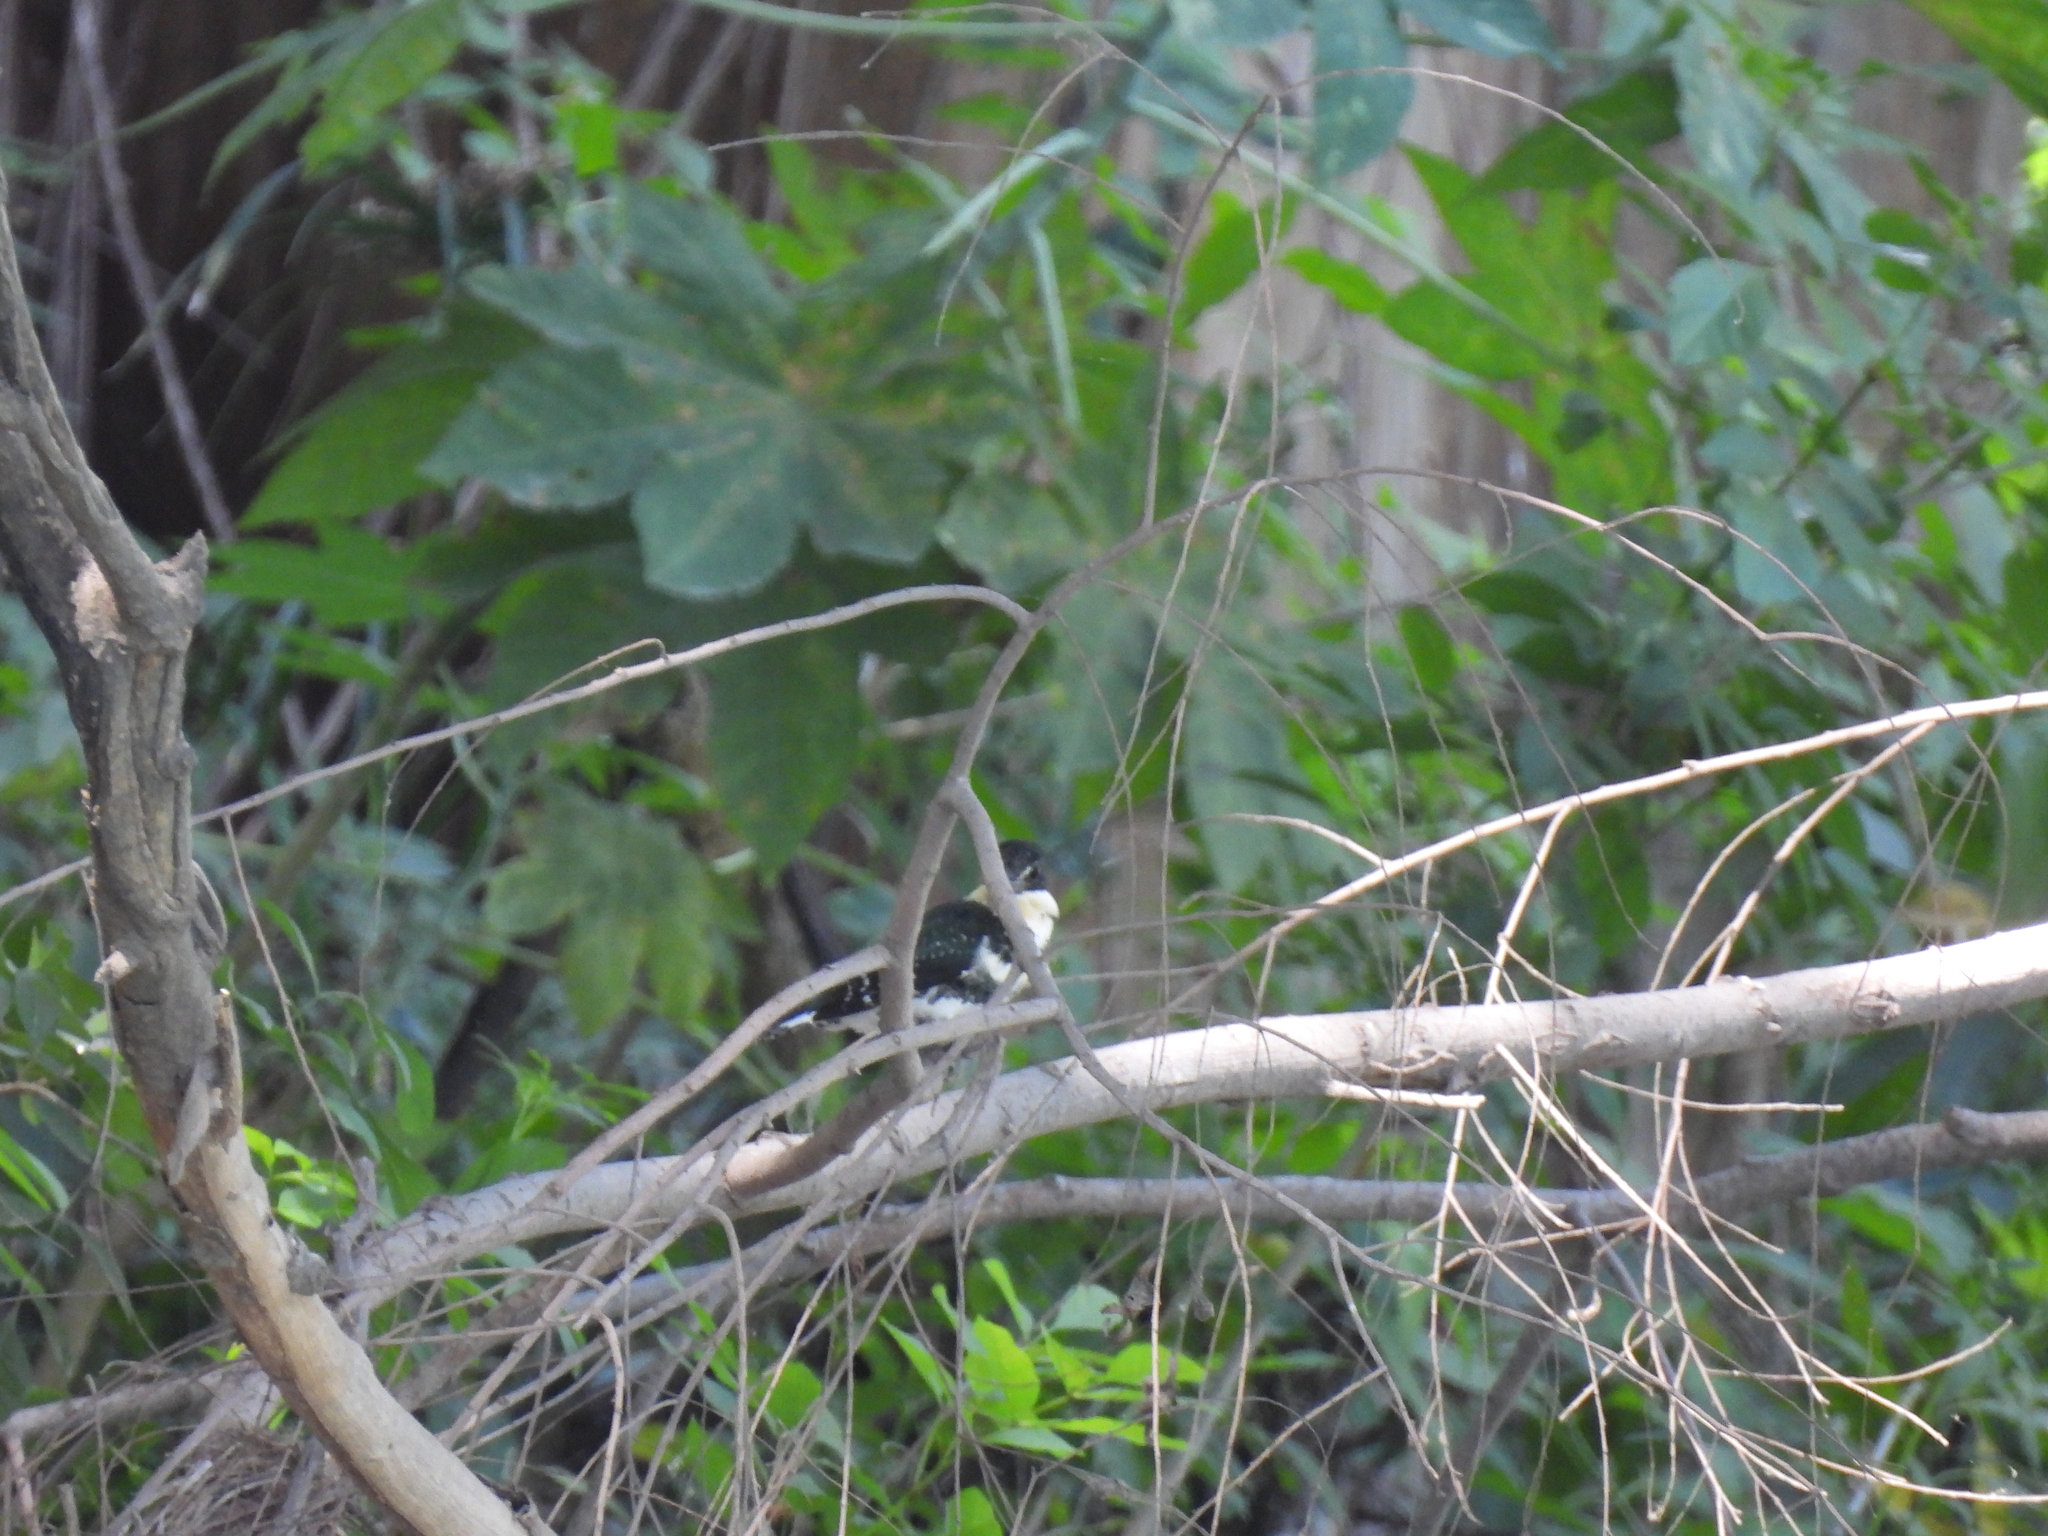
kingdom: Animalia
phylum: Chordata
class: Aves
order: Coraciiformes
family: Alcedinidae
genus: Chloroceryle
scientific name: Chloroceryle americana
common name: Green kingfisher
